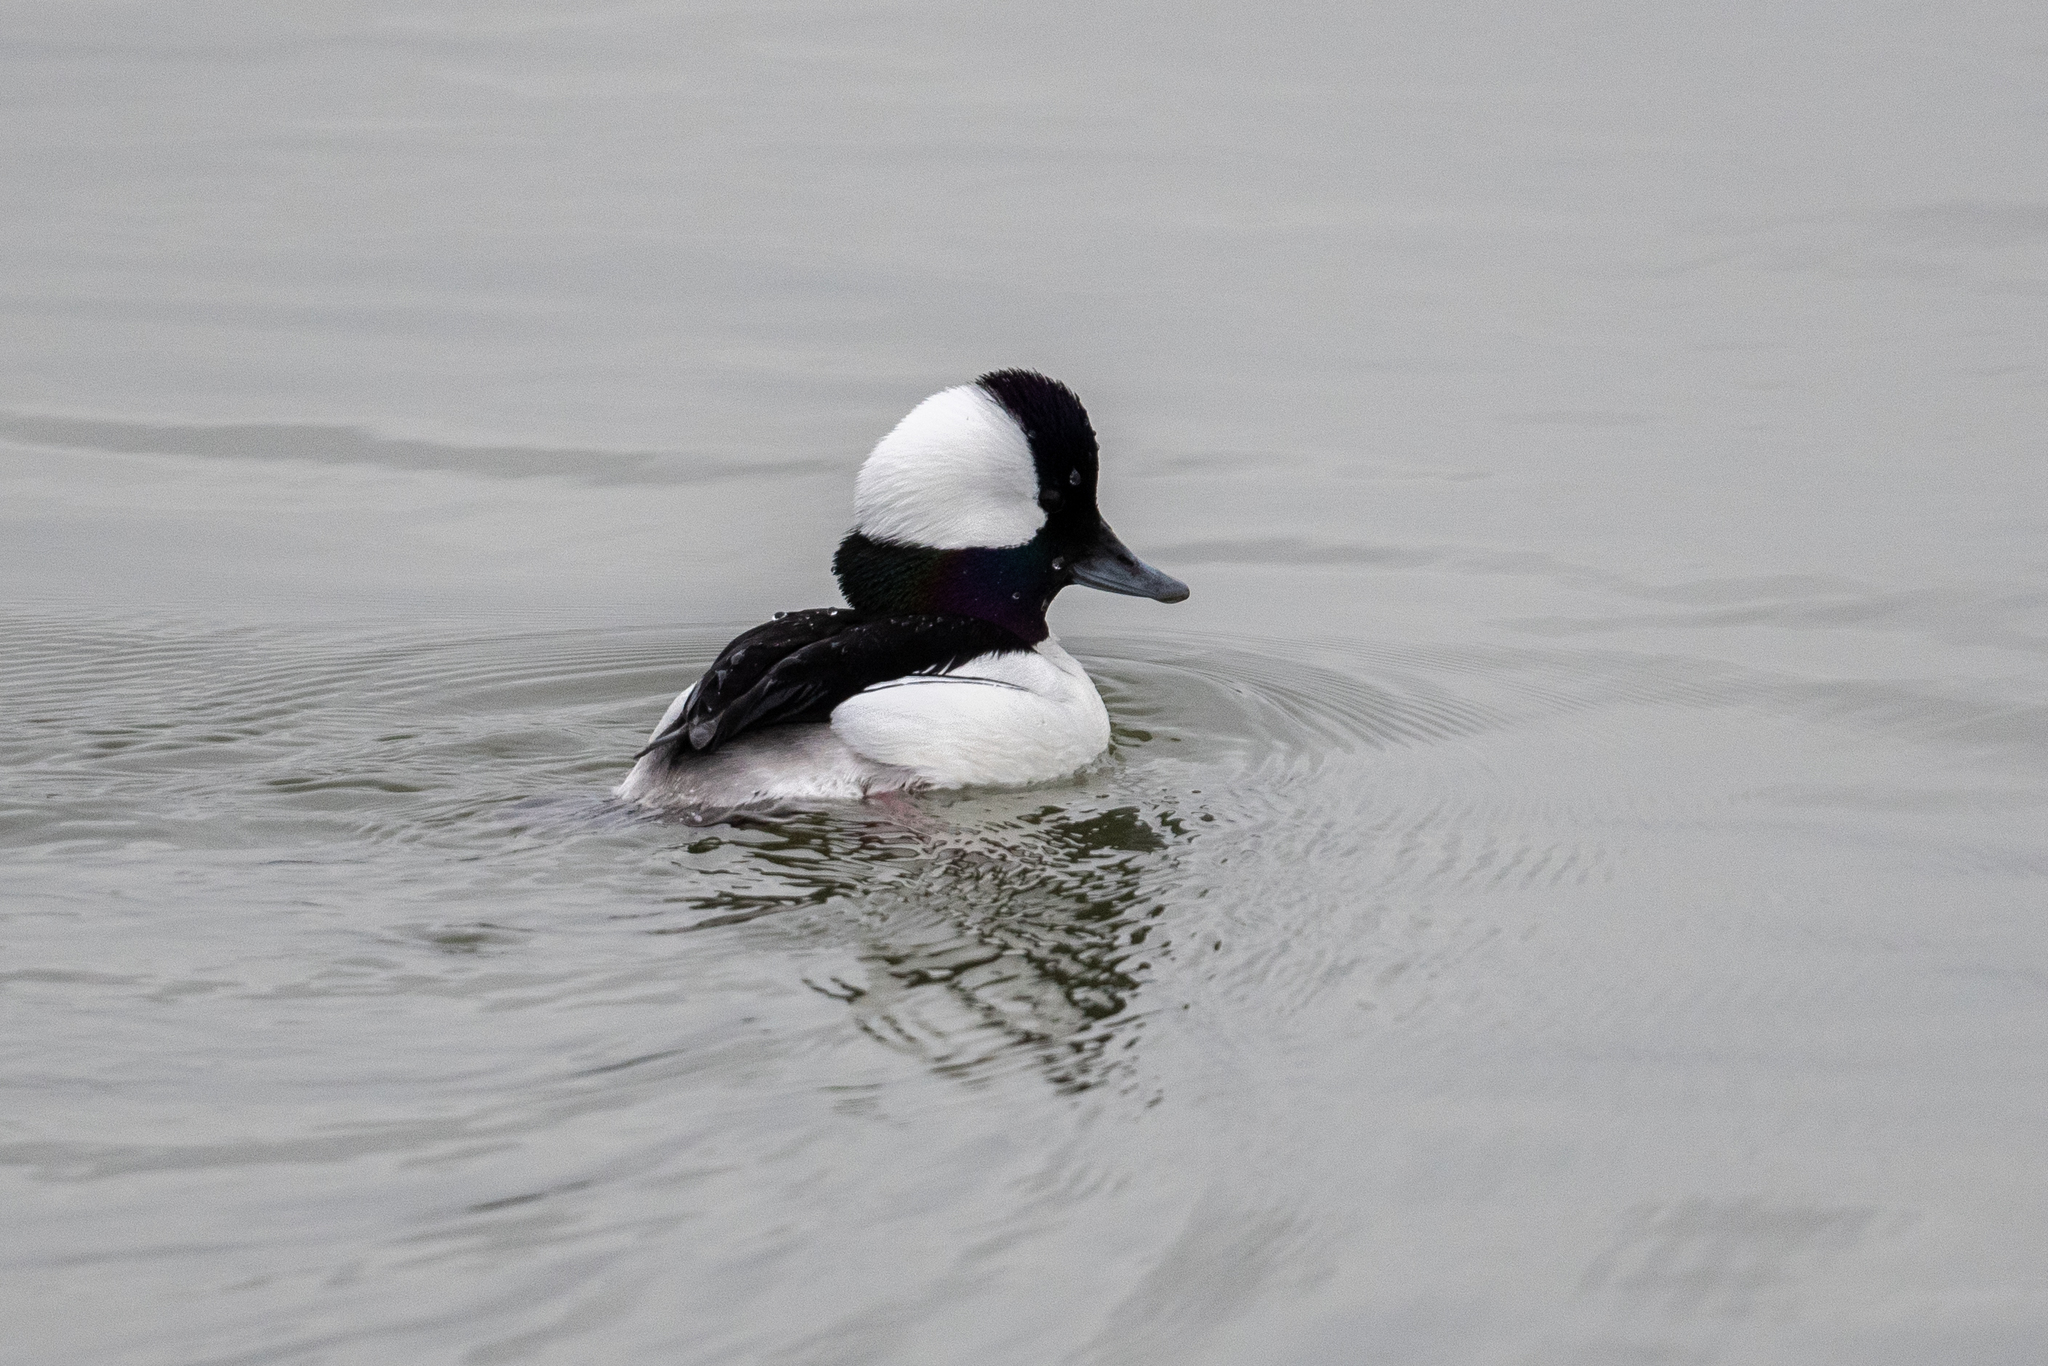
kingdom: Animalia
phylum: Chordata
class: Aves
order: Anseriformes
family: Anatidae
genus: Bucephala
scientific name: Bucephala albeola
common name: Bufflehead
